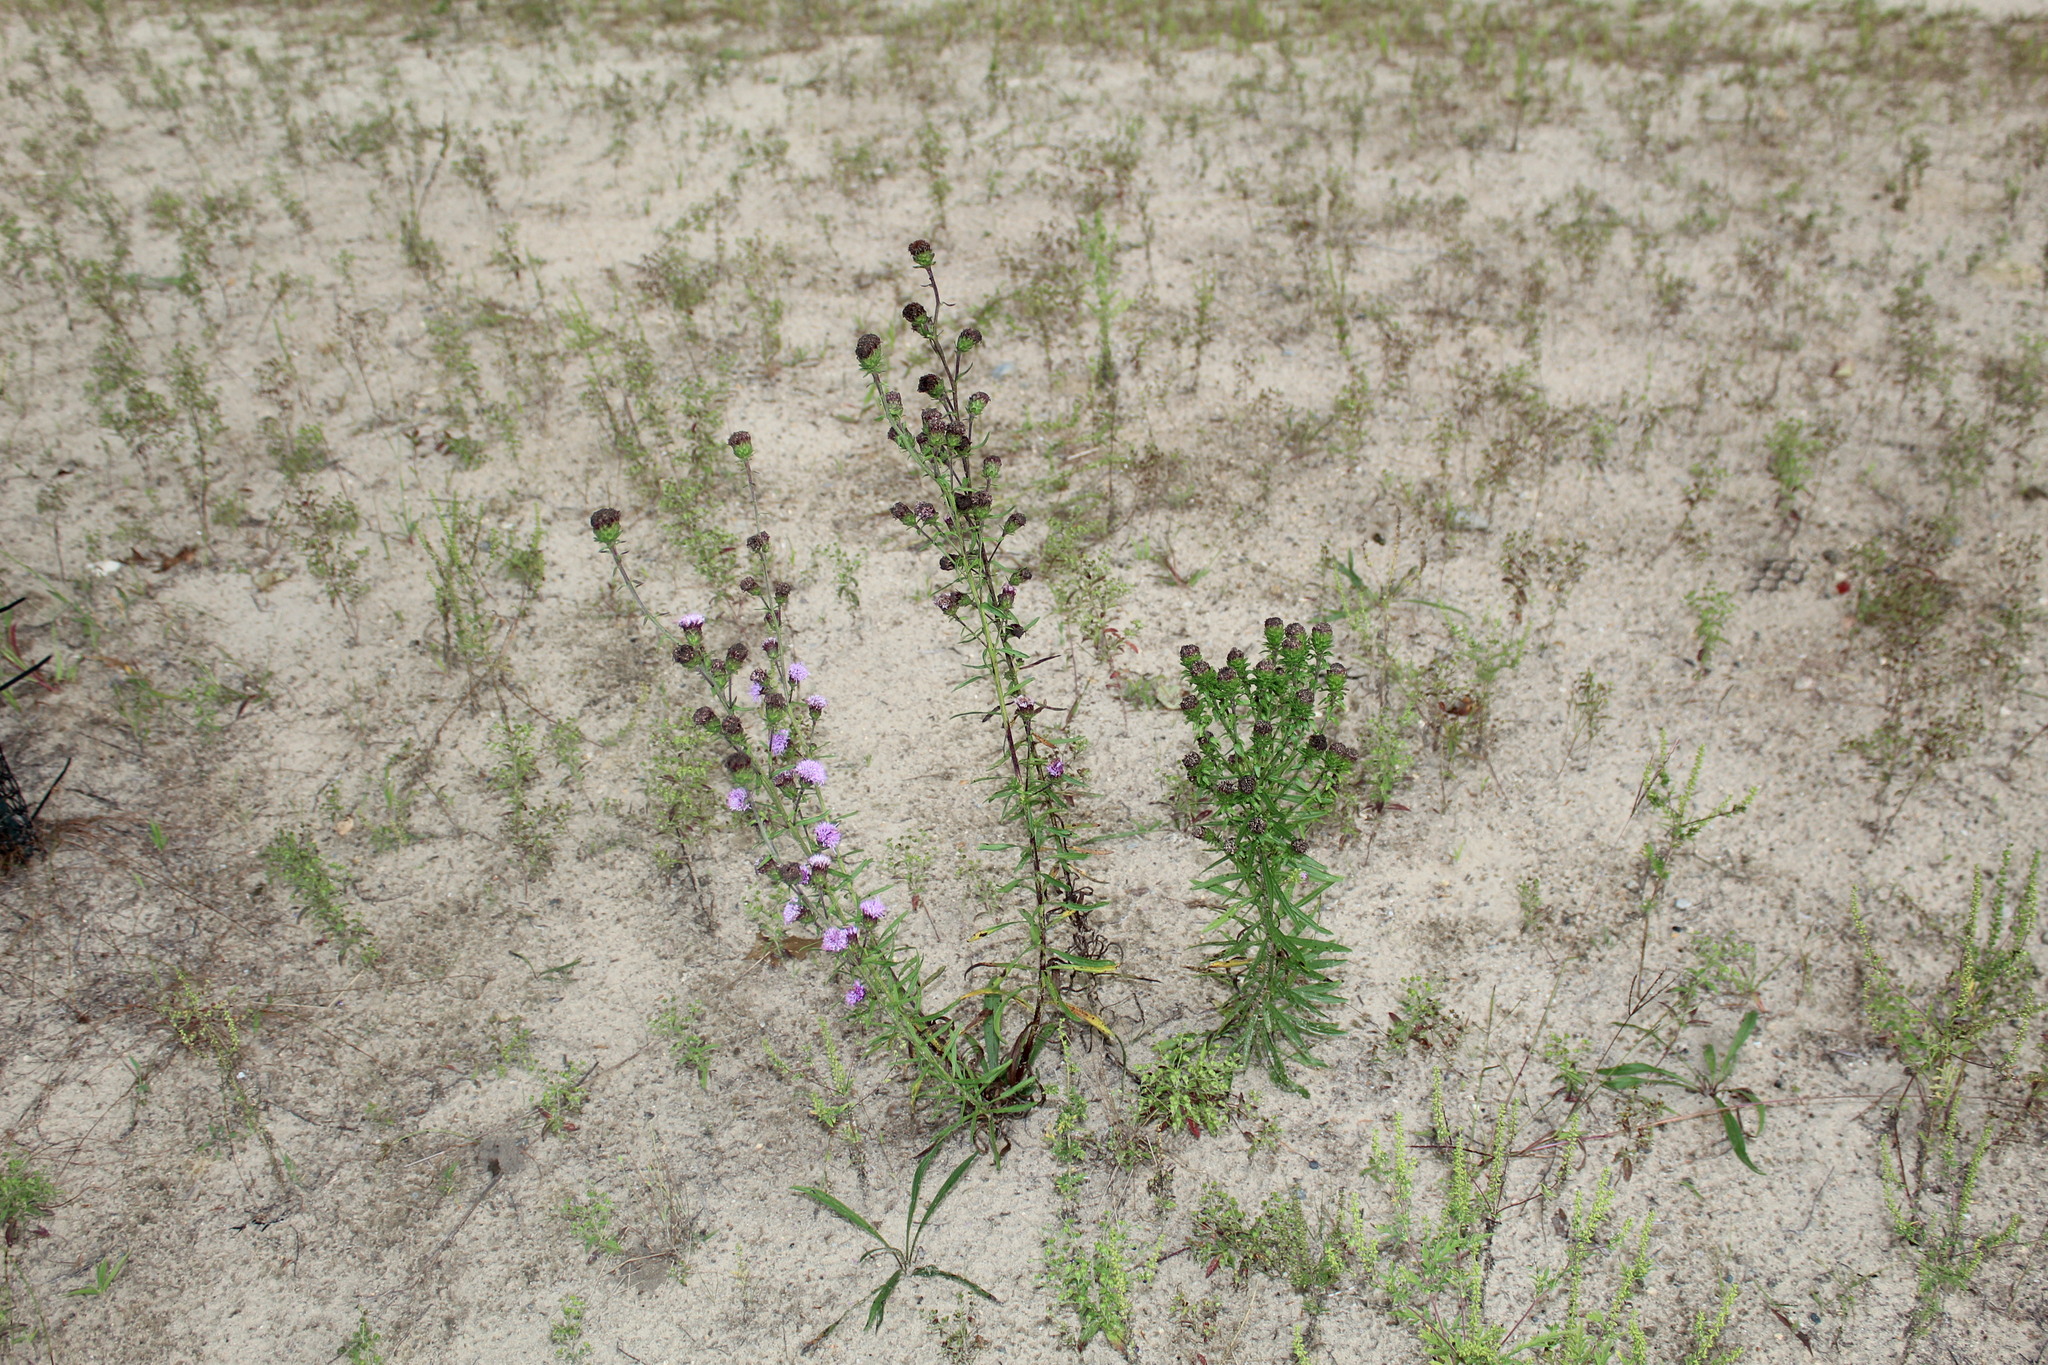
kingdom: Plantae
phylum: Tracheophyta
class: Magnoliopsida
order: Asterales
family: Asteraceae
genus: Liatris
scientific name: Liatris scariosa
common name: Northern gayfeather
